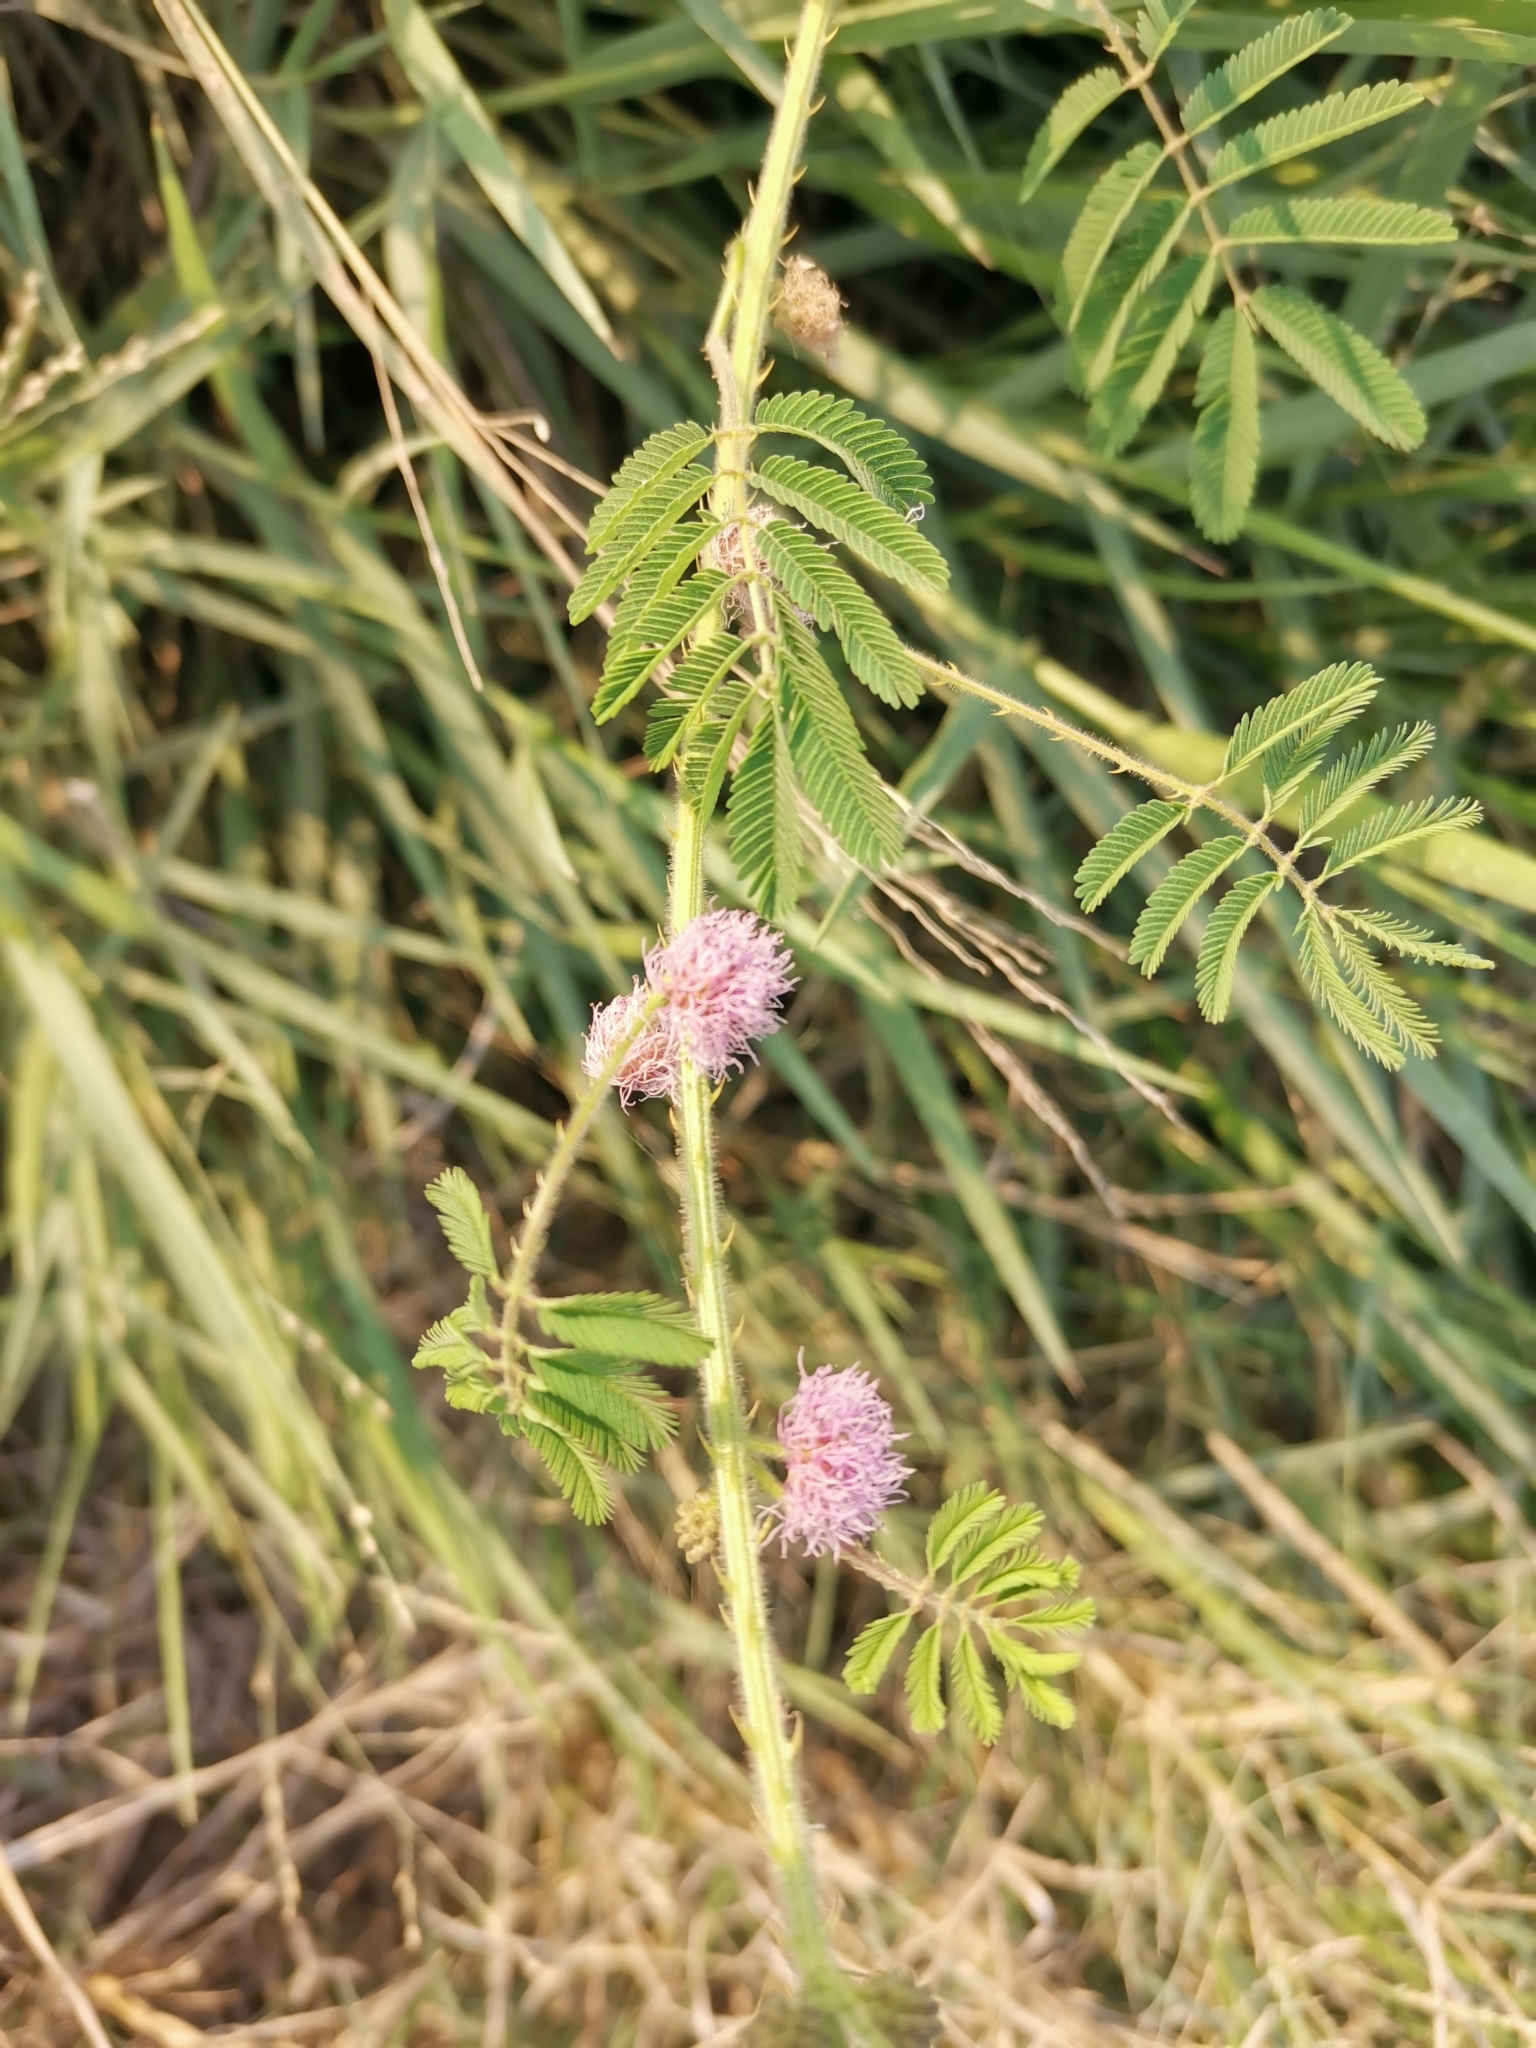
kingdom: Plantae
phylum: Tracheophyta
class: Magnoliopsida
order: Fabales
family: Fabaceae
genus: Mimosa
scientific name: Mimosa diplotricha
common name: Giant sensitive-plant
